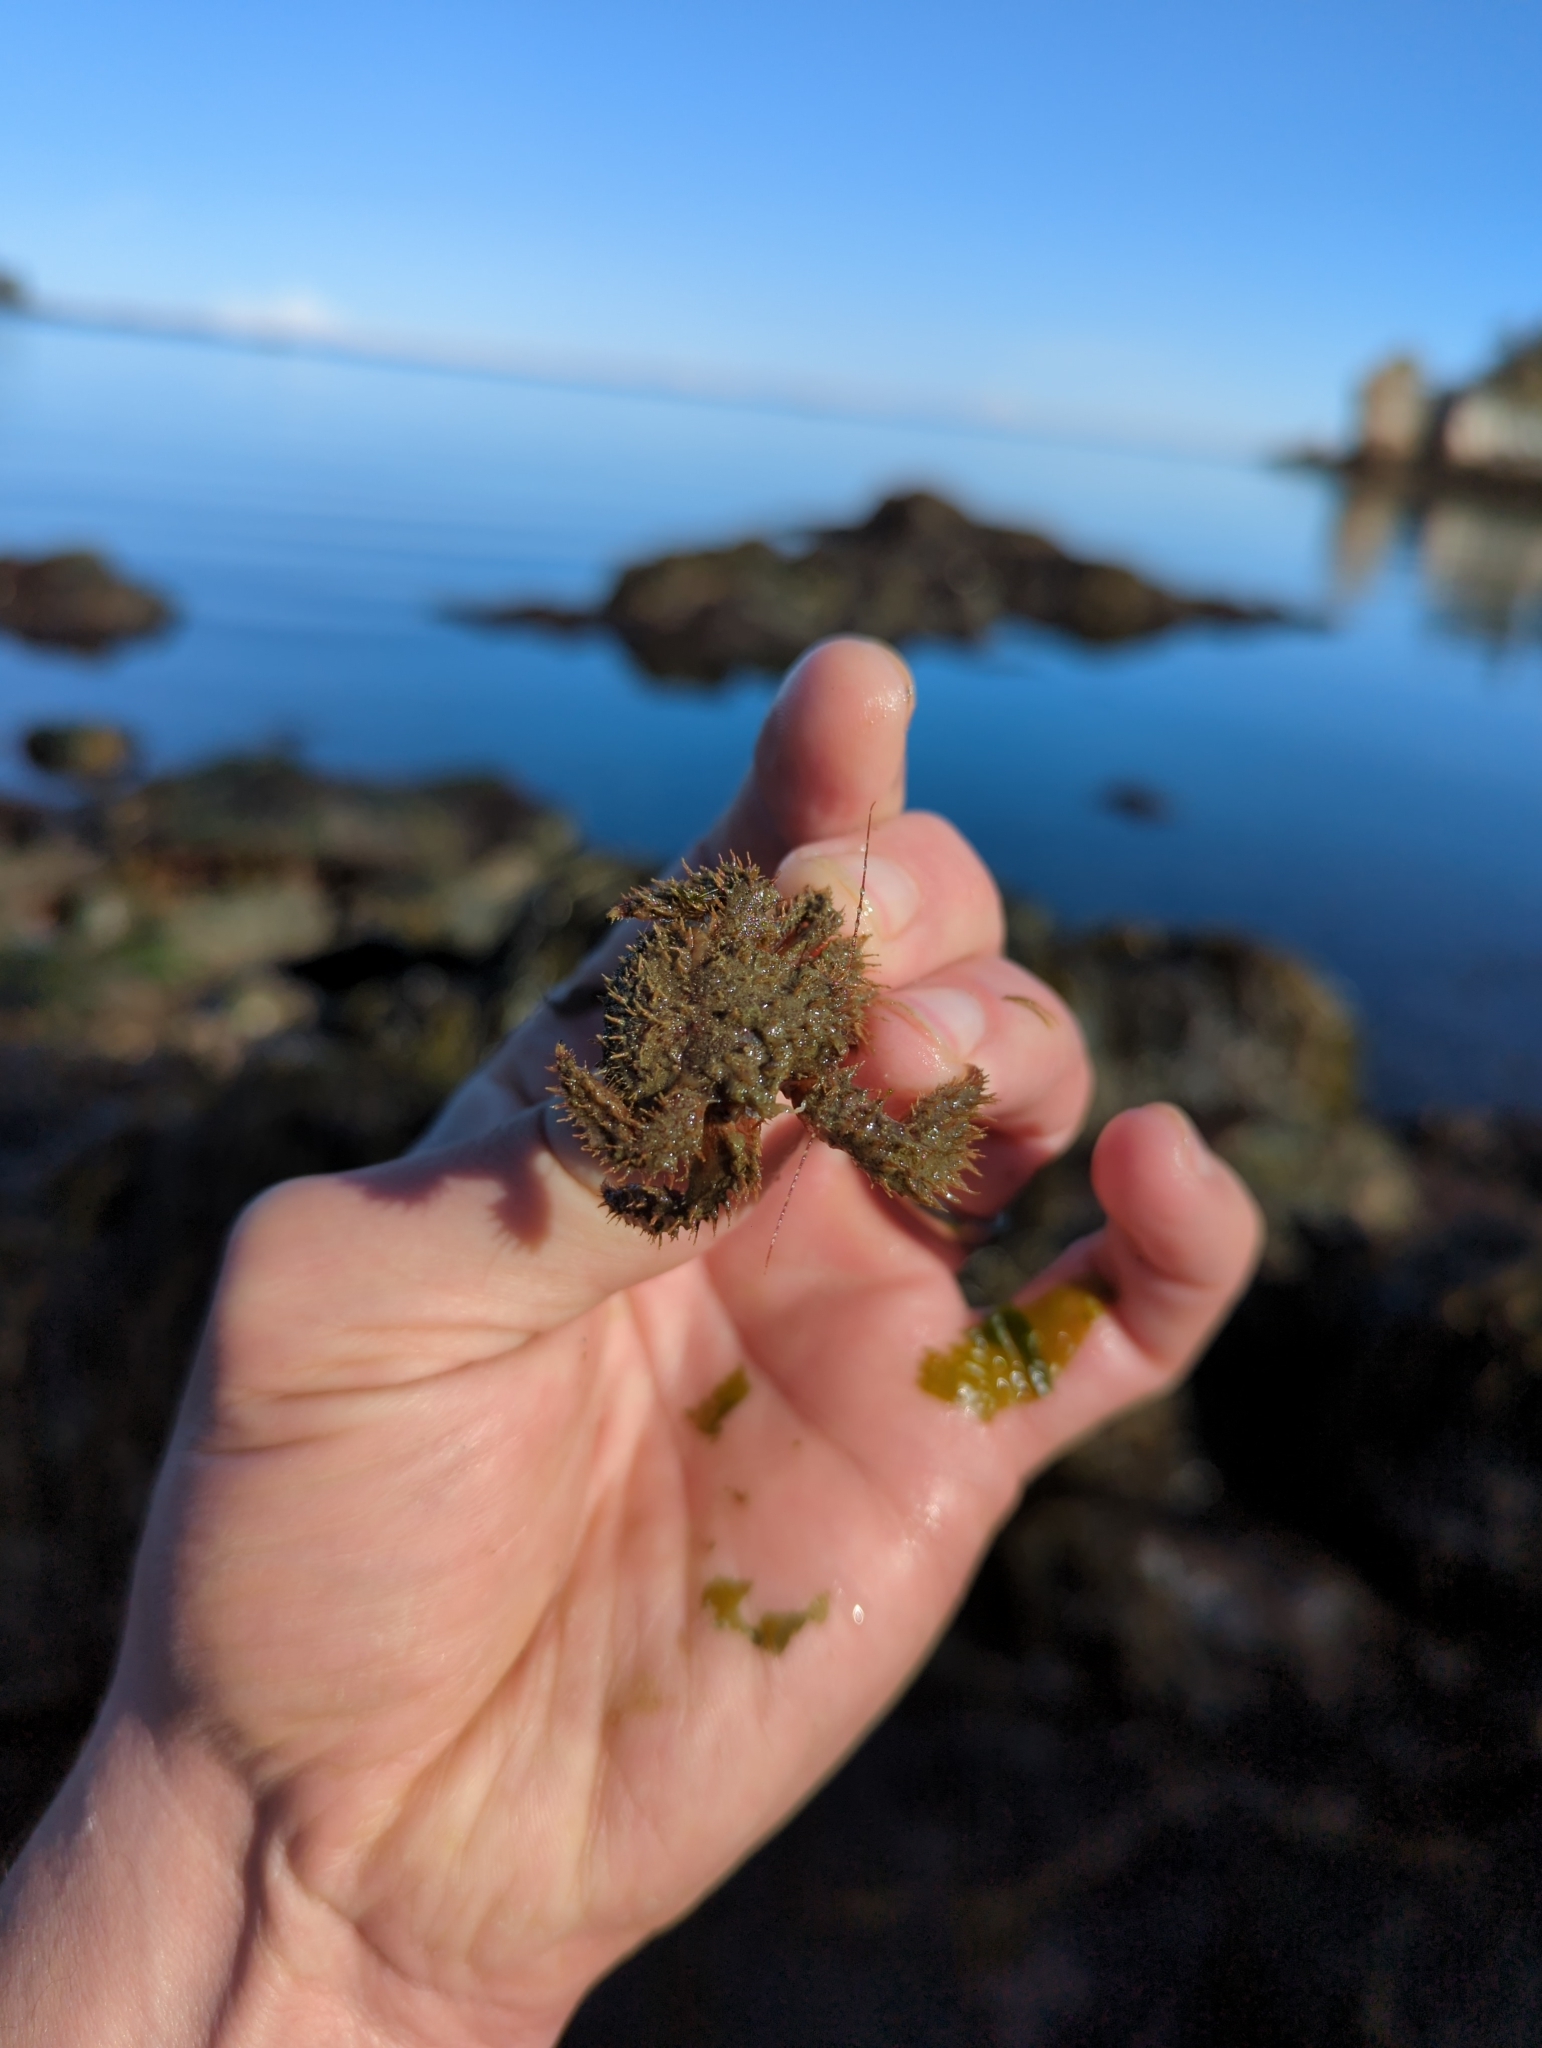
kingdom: Animalia
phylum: Arthropoda
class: Malacostraca
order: Decapoda
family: Hapalogastridae
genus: Hapalogaster
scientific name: Hapalogaster mertensii
